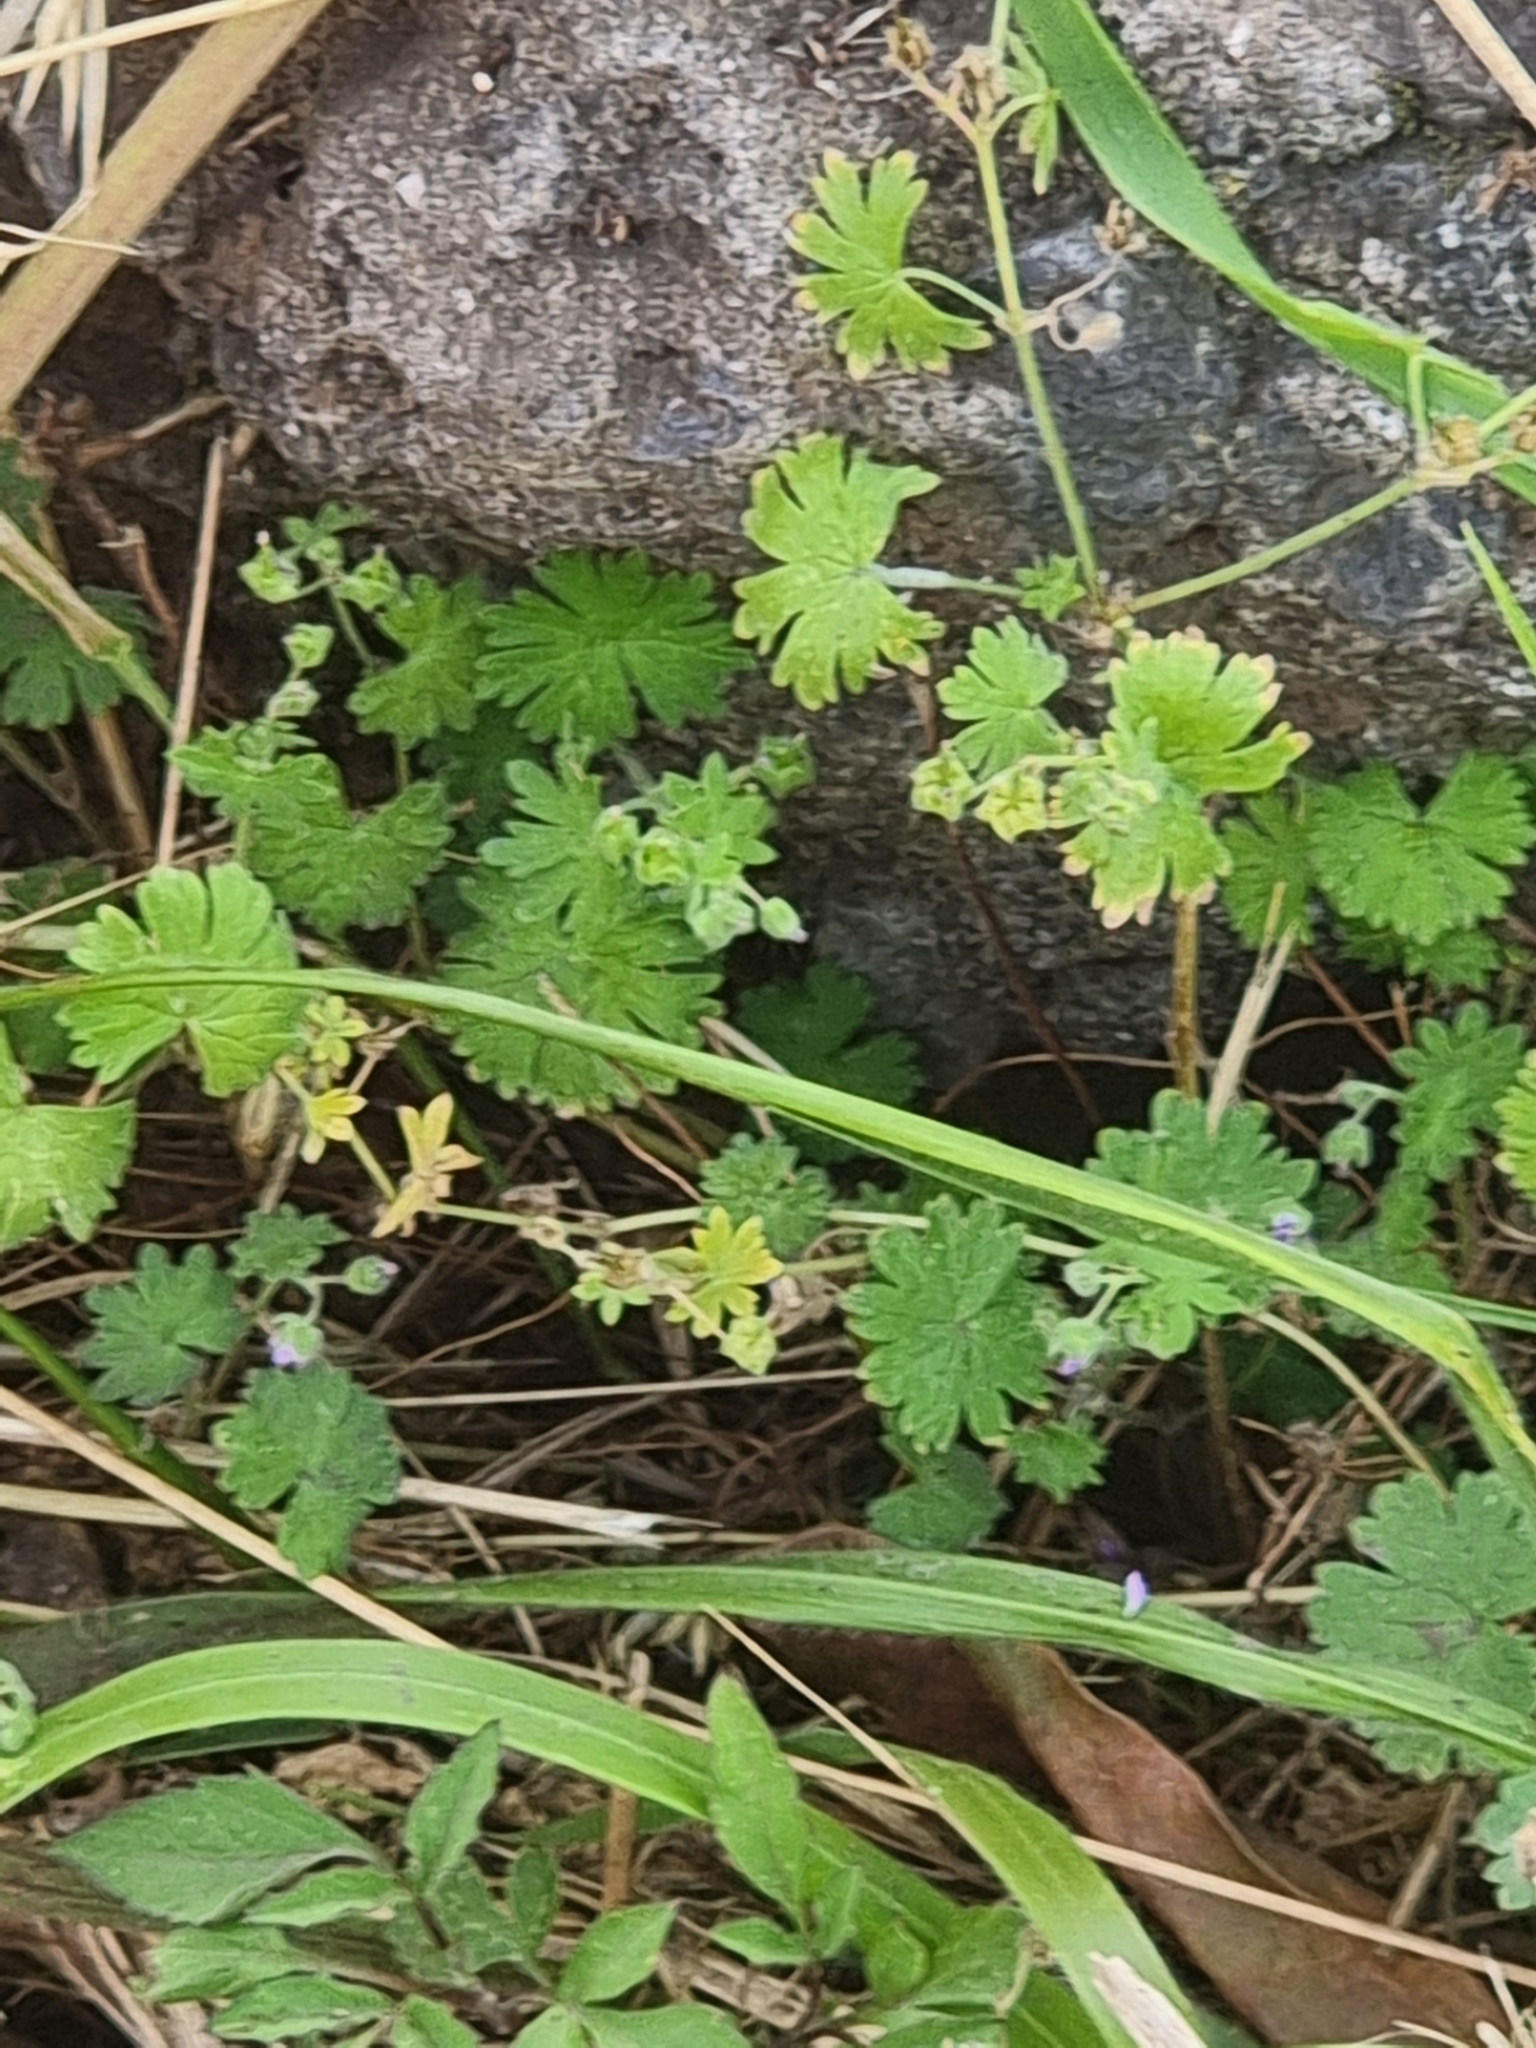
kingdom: Plantae
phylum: Tracheophyta
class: Magnoliopsida
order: Geraniales
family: Geraniaceae
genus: Geranium
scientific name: Geranium molle
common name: Dove's-foot crane's-bill
